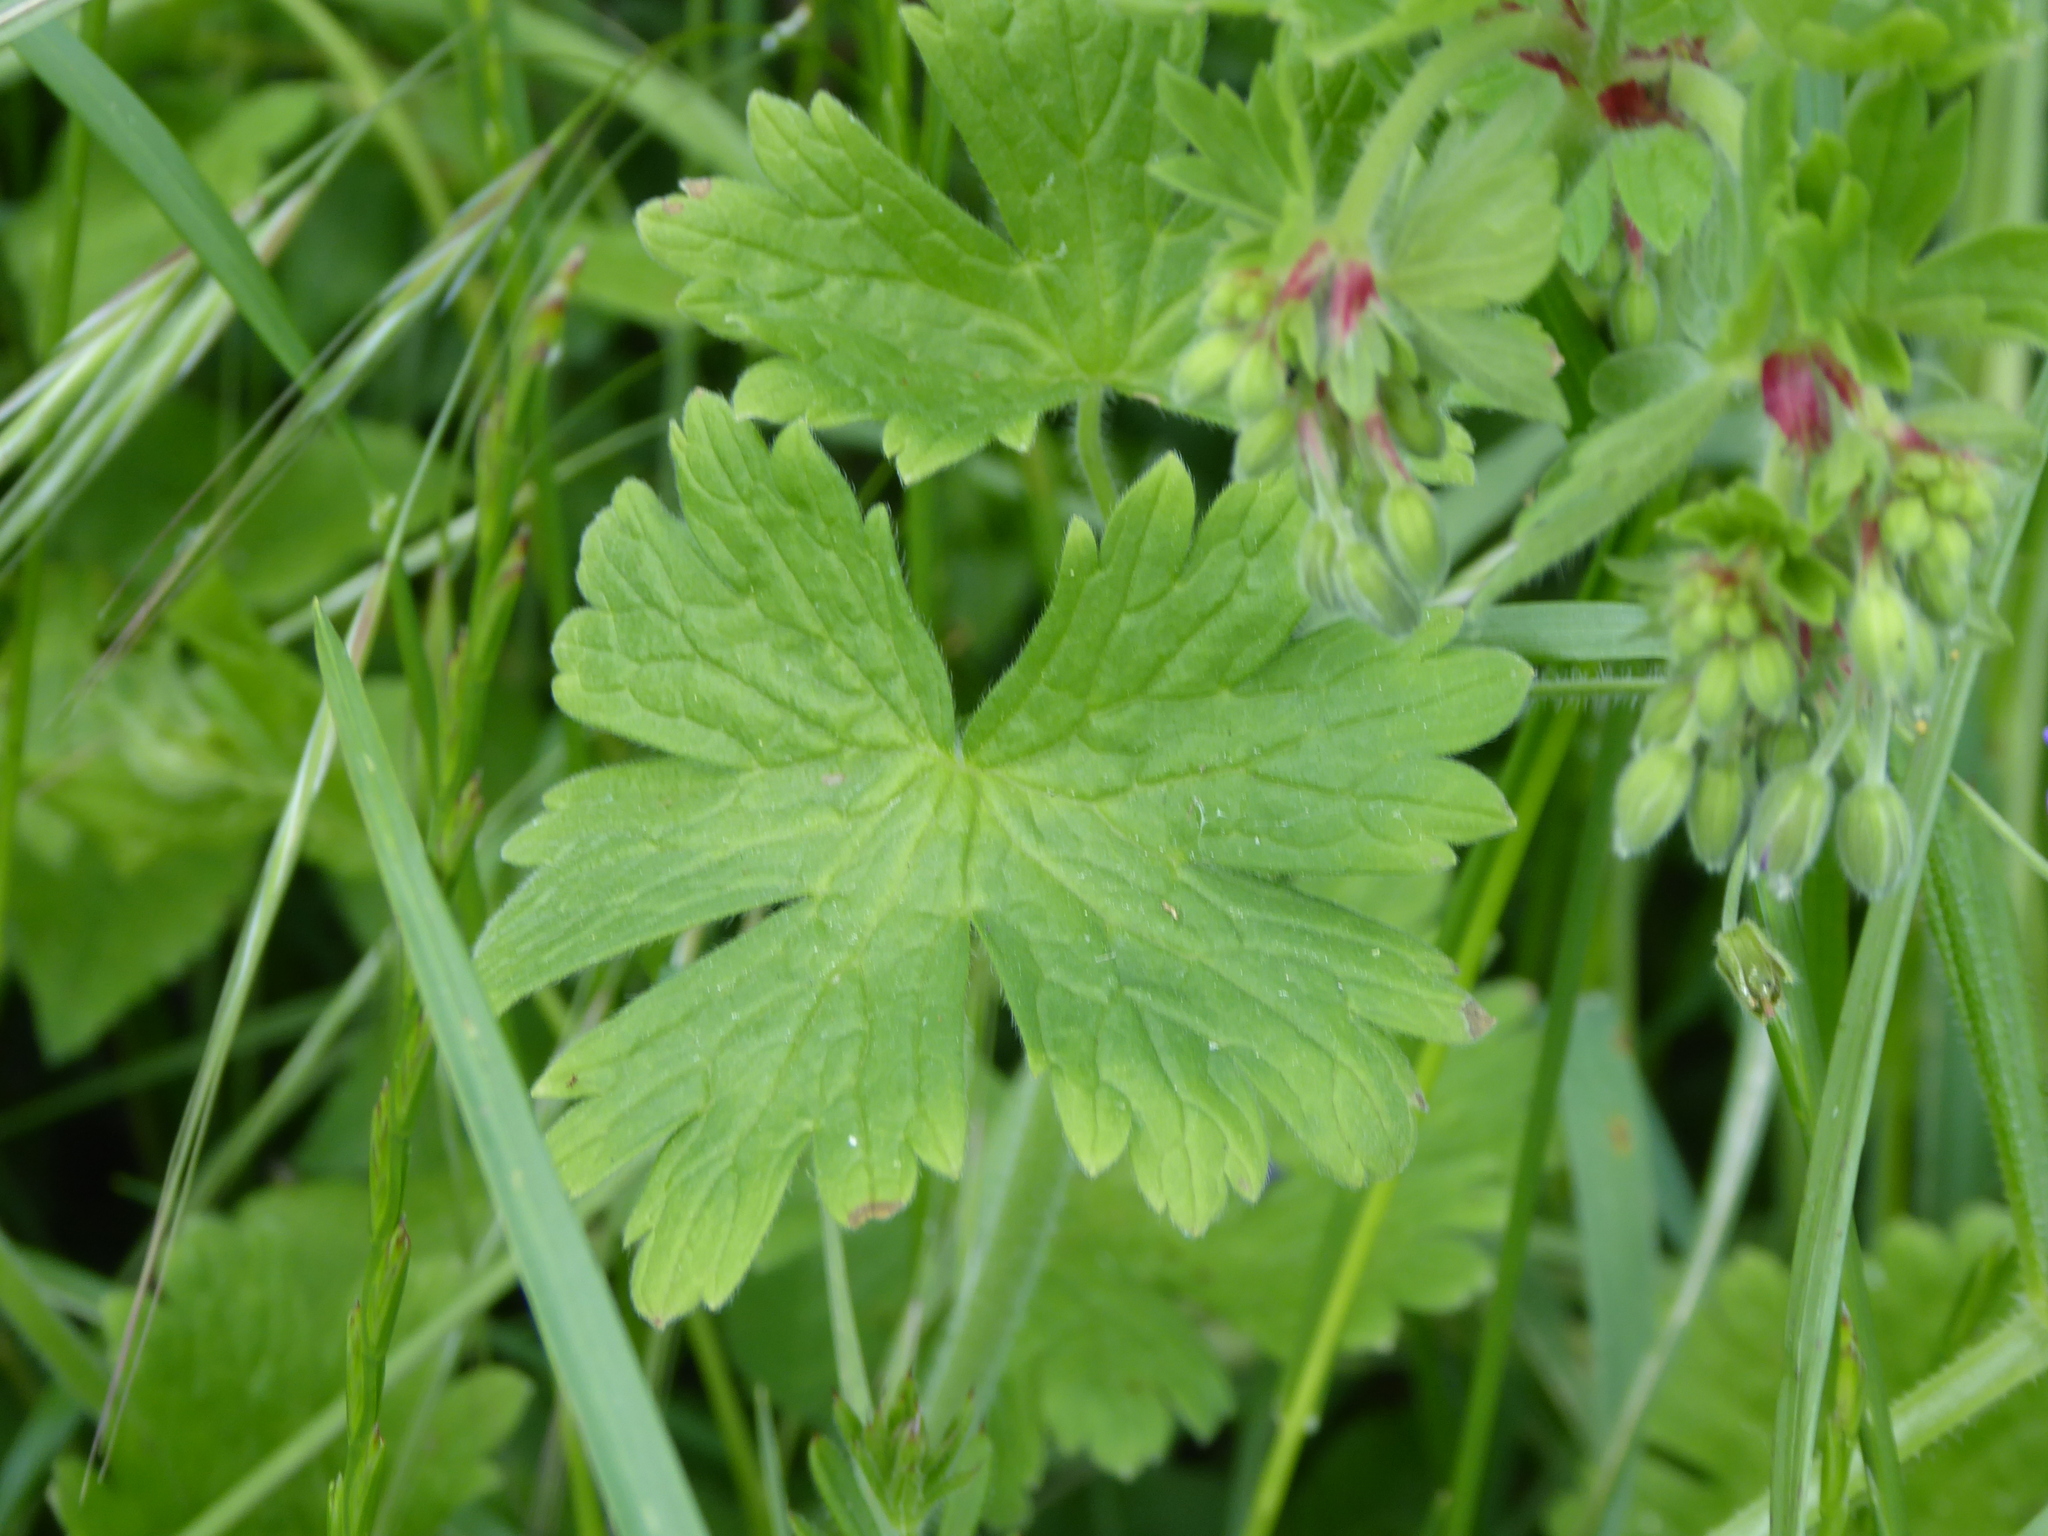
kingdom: Plantae
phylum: Tracheophyta
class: Magnoliopsida
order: Geraniales
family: Geraniaceae
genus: Geranium
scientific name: Geranium pyrenaicum
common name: Hedgerow crane's-bill
